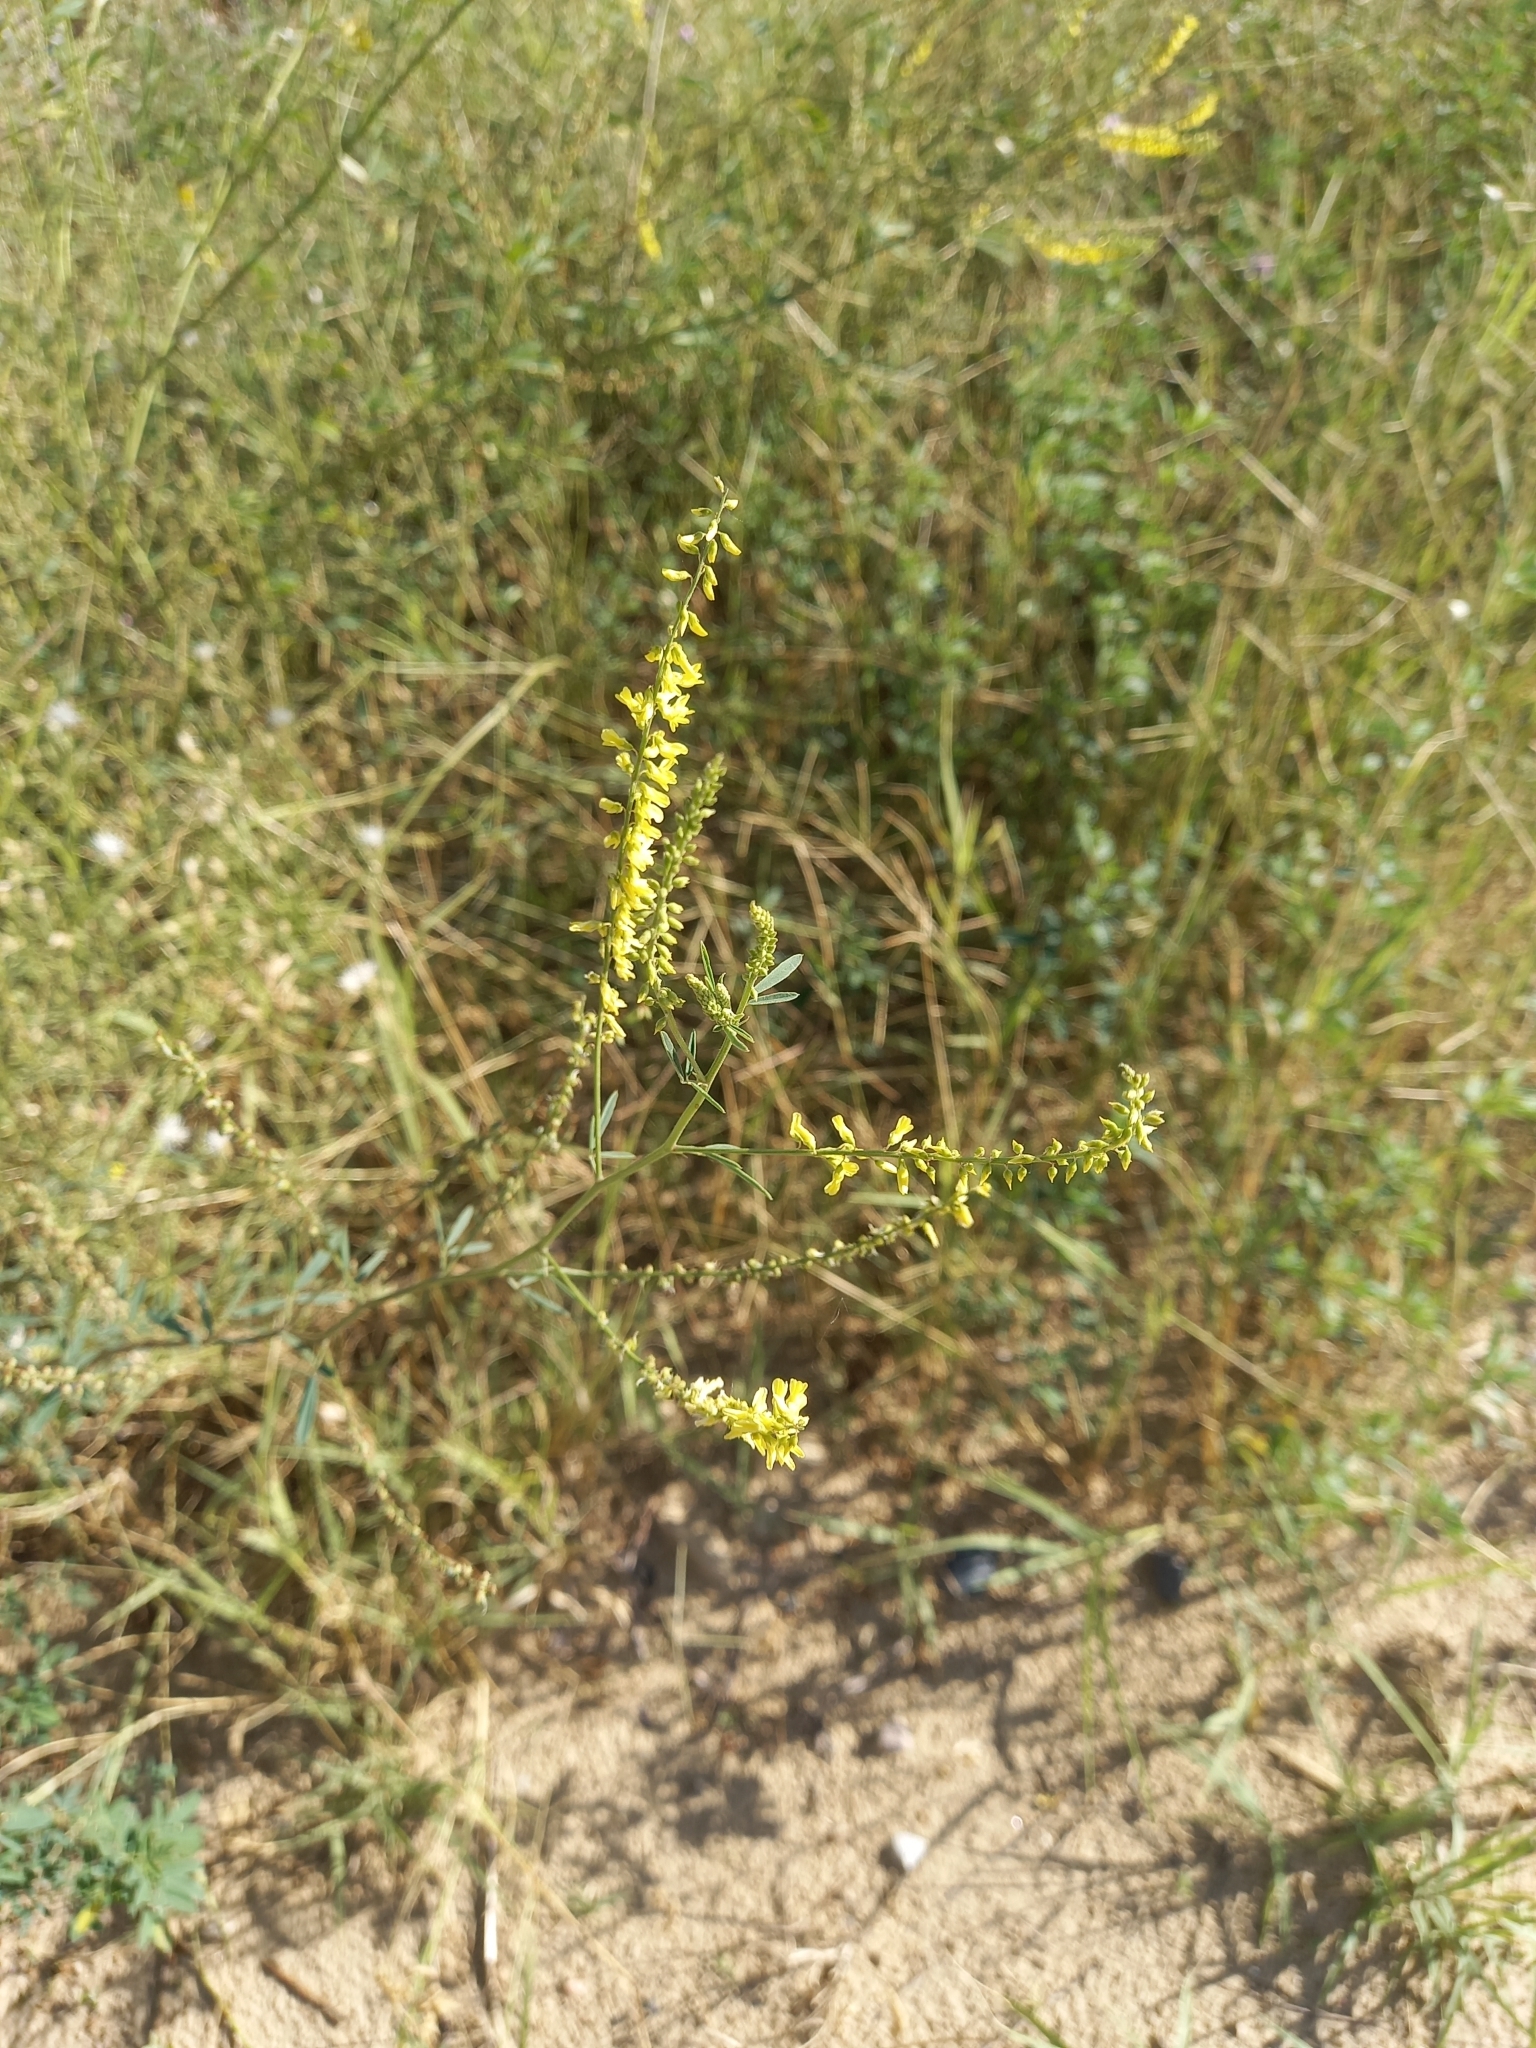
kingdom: Plantae
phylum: Tracheophyta
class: Magnoliopsida
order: Fabales
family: Fabaceae
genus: Melilotus
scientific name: Melilotus officinalis
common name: Sweetclover
